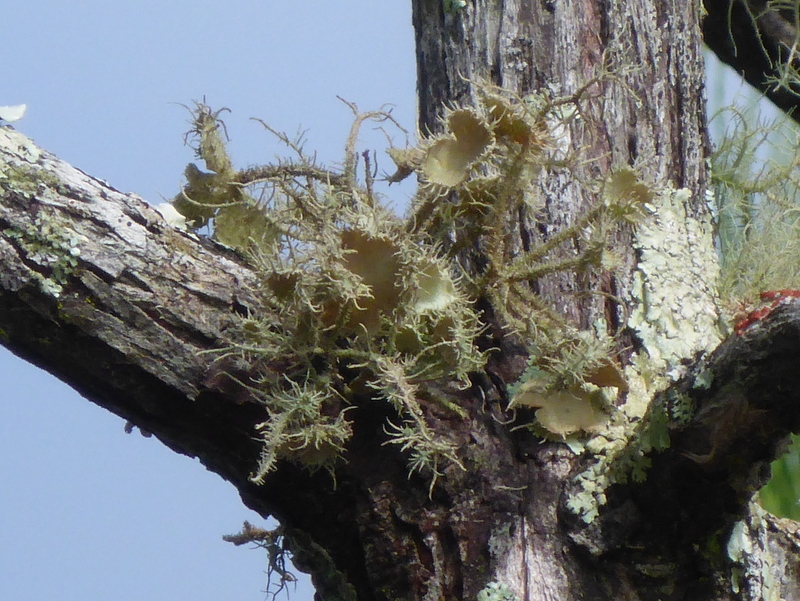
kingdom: Fungi
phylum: Ascomycota
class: Lecanoromycetes
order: Lecanorales
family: Parmeliaceae
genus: Usnea
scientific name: Usnea strigosa
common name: Bushy beard lichen
